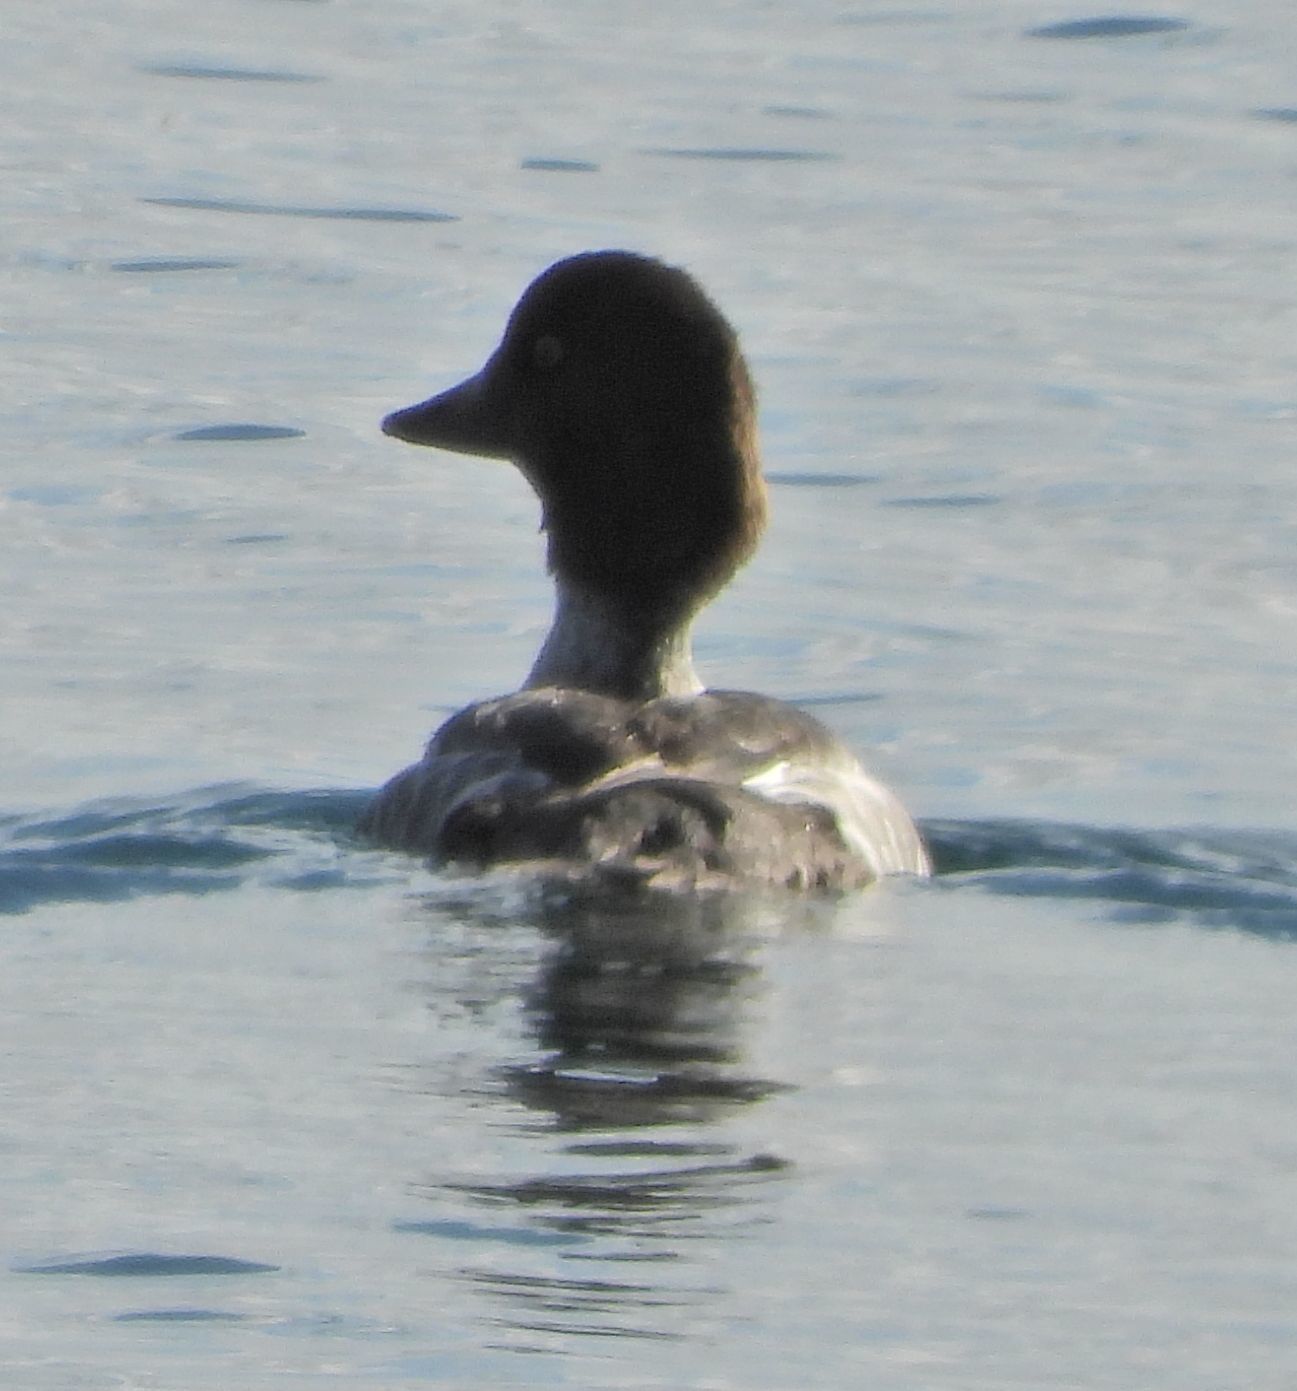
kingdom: Animalia
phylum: Chordata
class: Aves
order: Anseriformes
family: Anatidae
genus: Bucephala
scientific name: Bucephala clangula
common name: Common goldeneye
